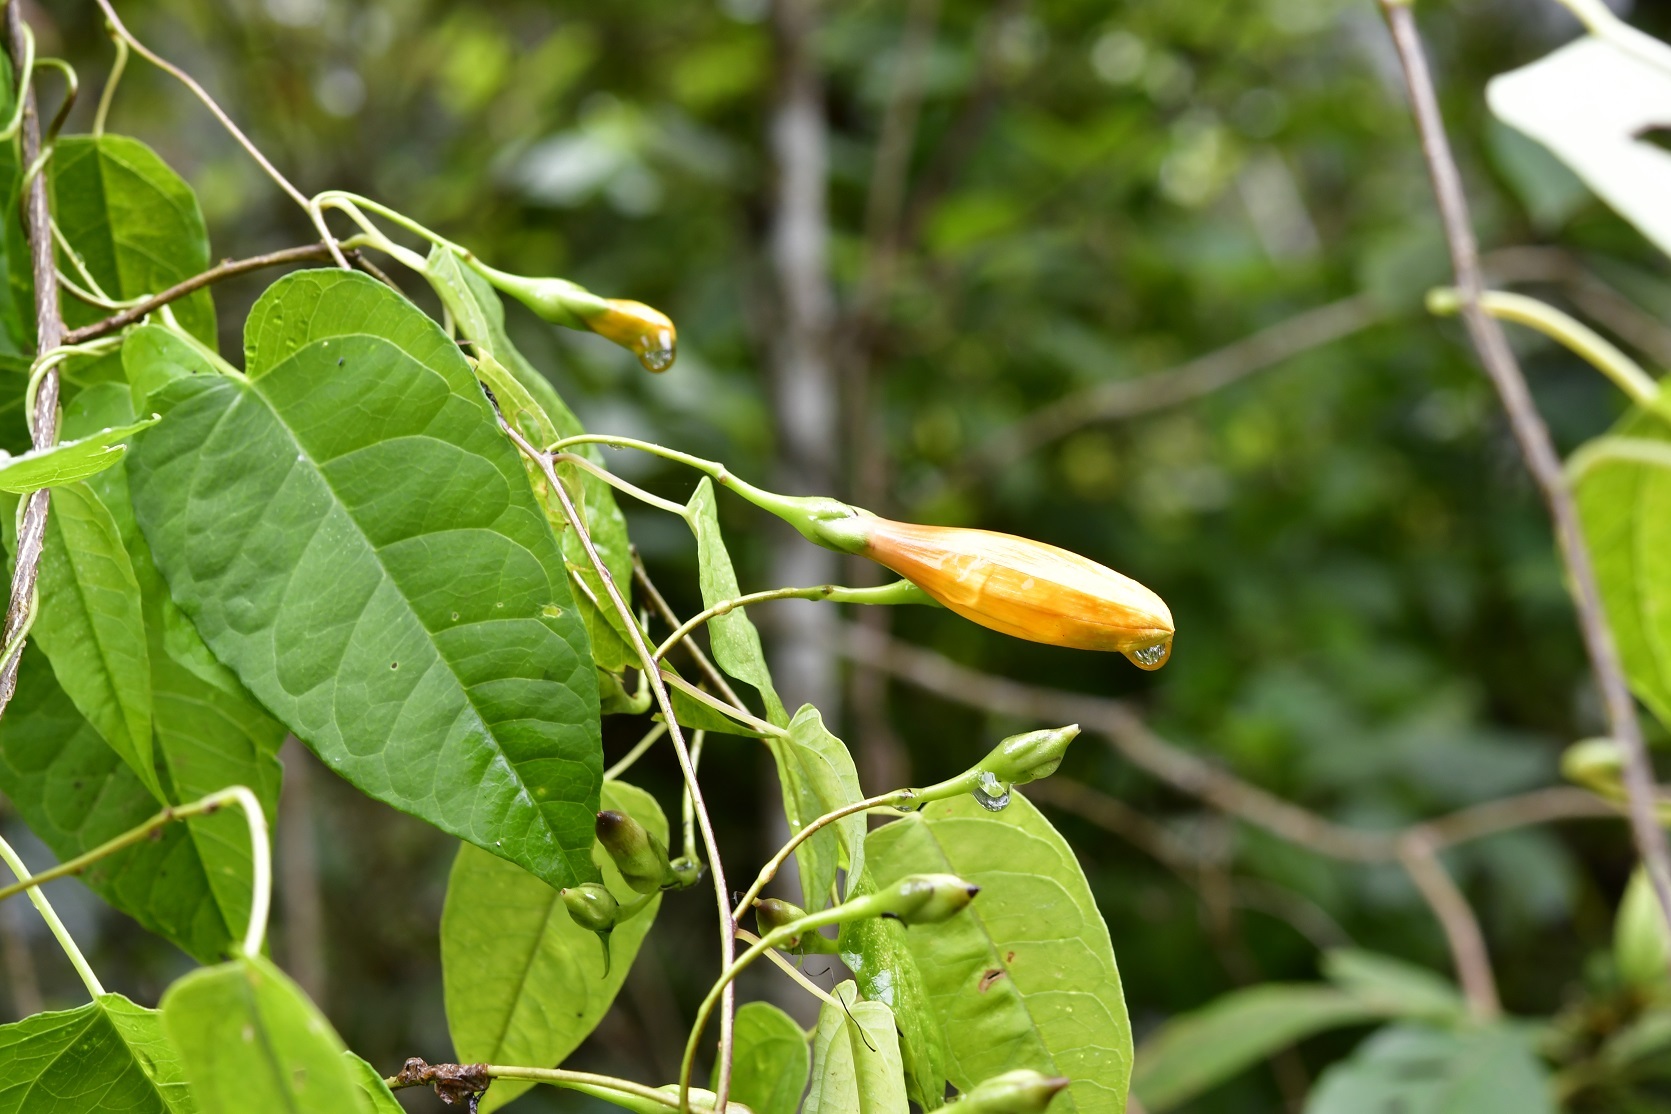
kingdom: Plantae
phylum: Tracheophyta
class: Magnoliopsida
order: Solanales
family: Convolvulaceae
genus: Ipomoea
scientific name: Ipomoea aurantiaca
